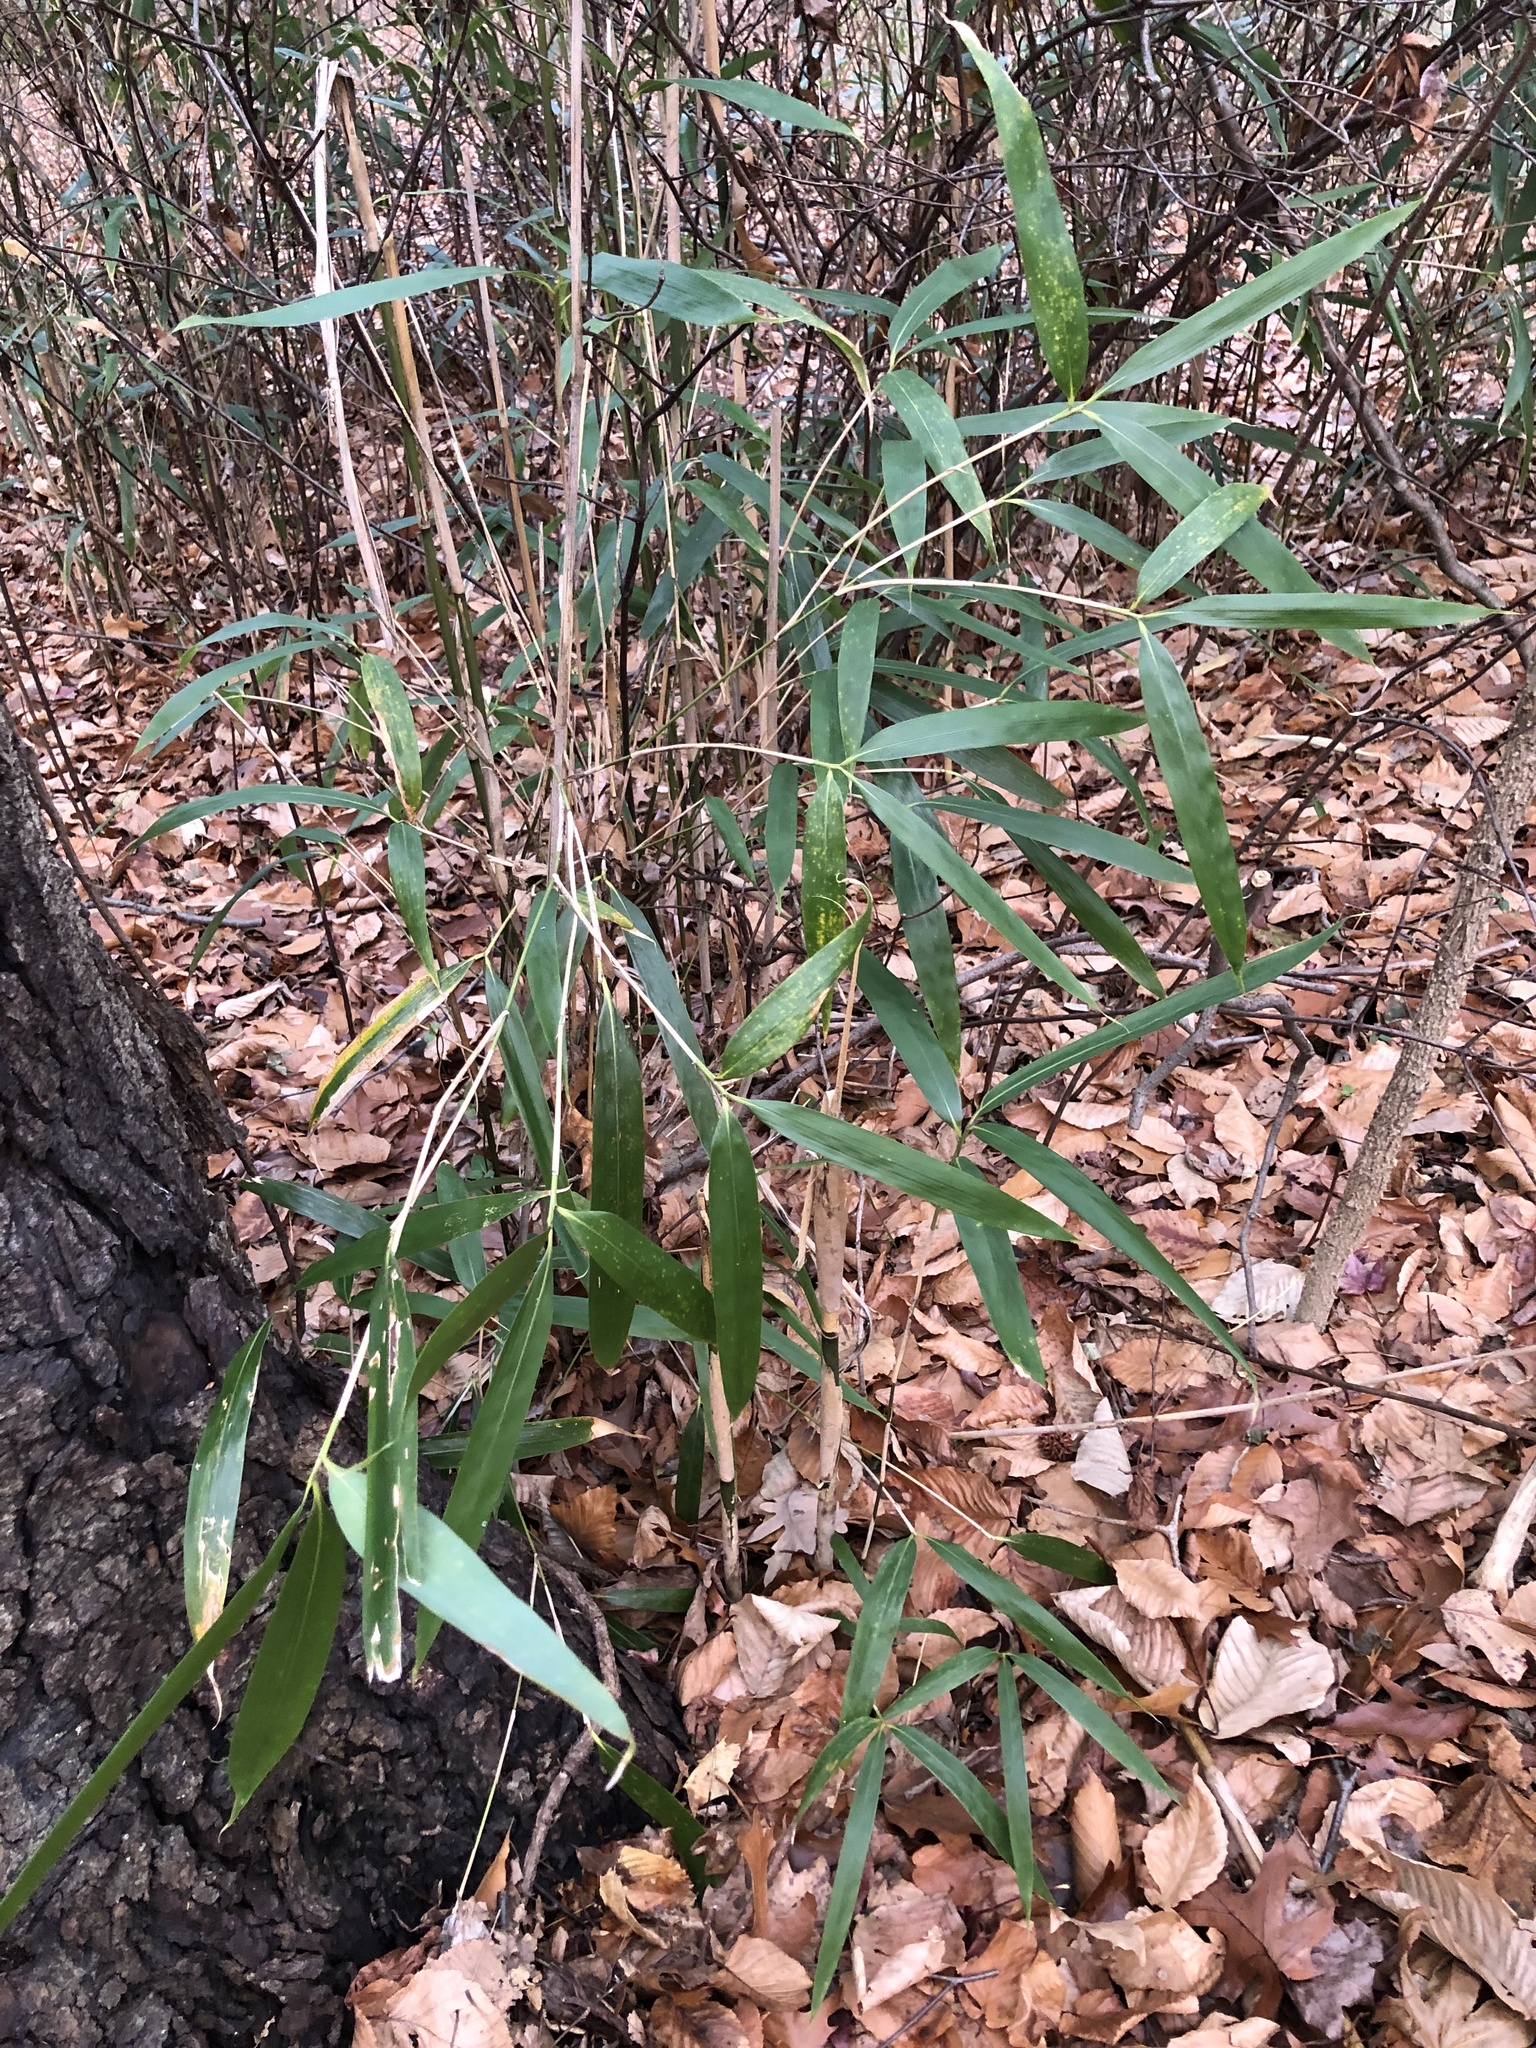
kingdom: Plantae
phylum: Tracheophyta
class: Liliopsida
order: Poales
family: Poaceae
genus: Pseudosasa
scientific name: Pseudosasa japonica
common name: Arrow bamboo
